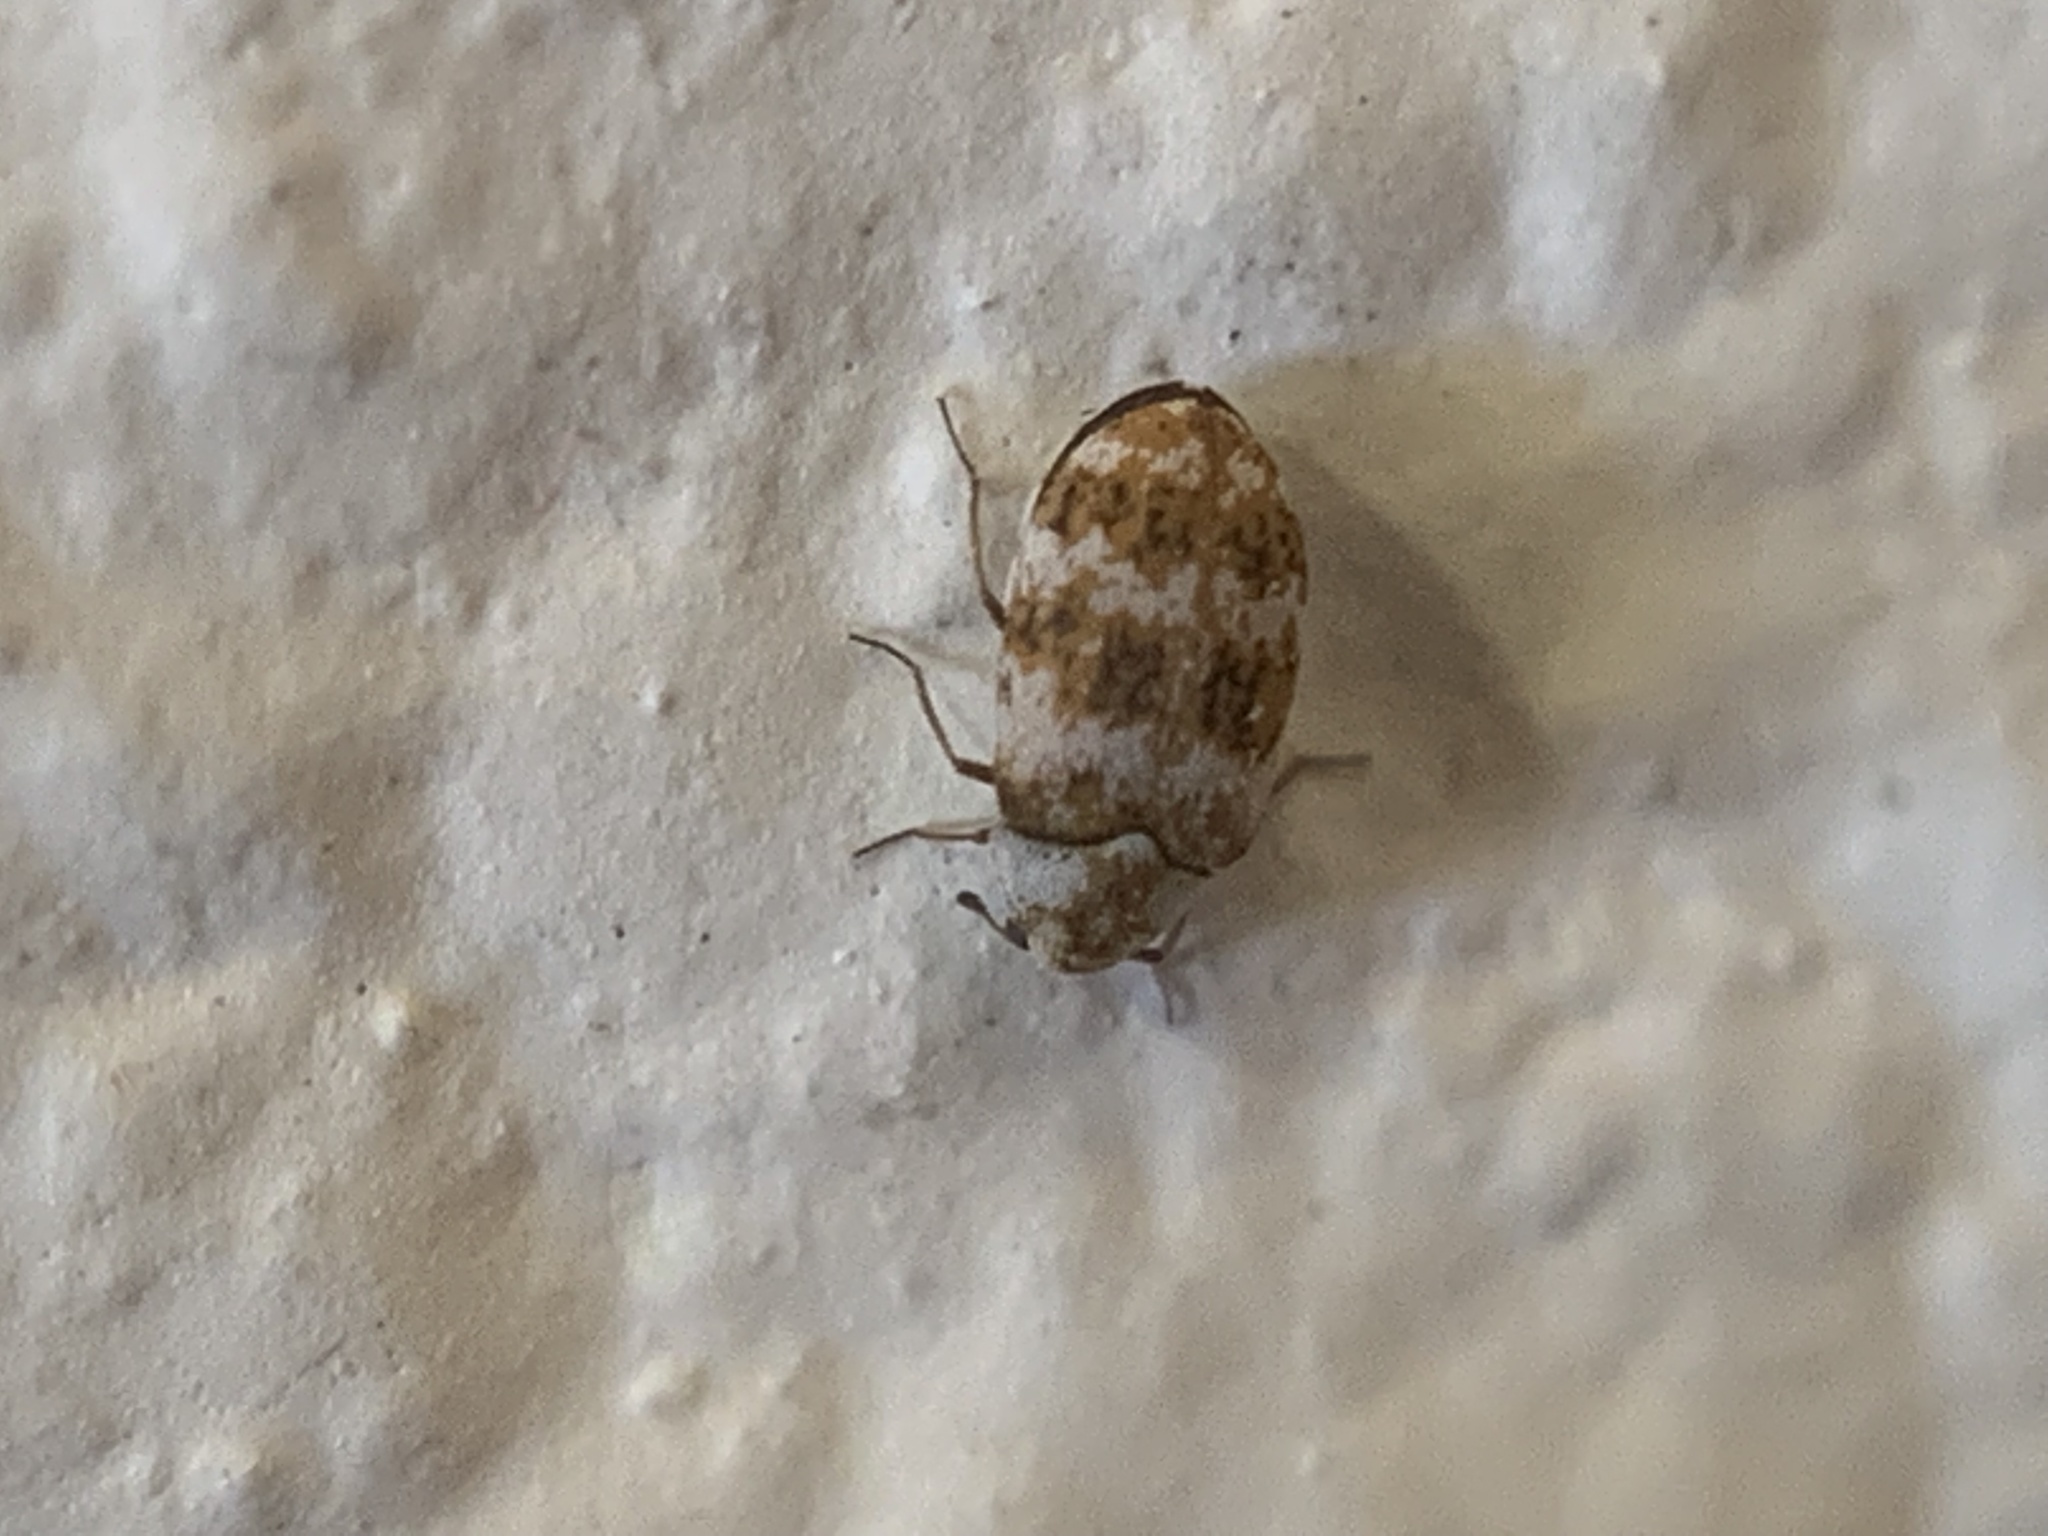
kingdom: Animalia
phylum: Arthropoda
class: Insecta
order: Coleoptera
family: Dermestidae
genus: Anthrenus
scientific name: Anthrenus coloratus
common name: Auger beetle
